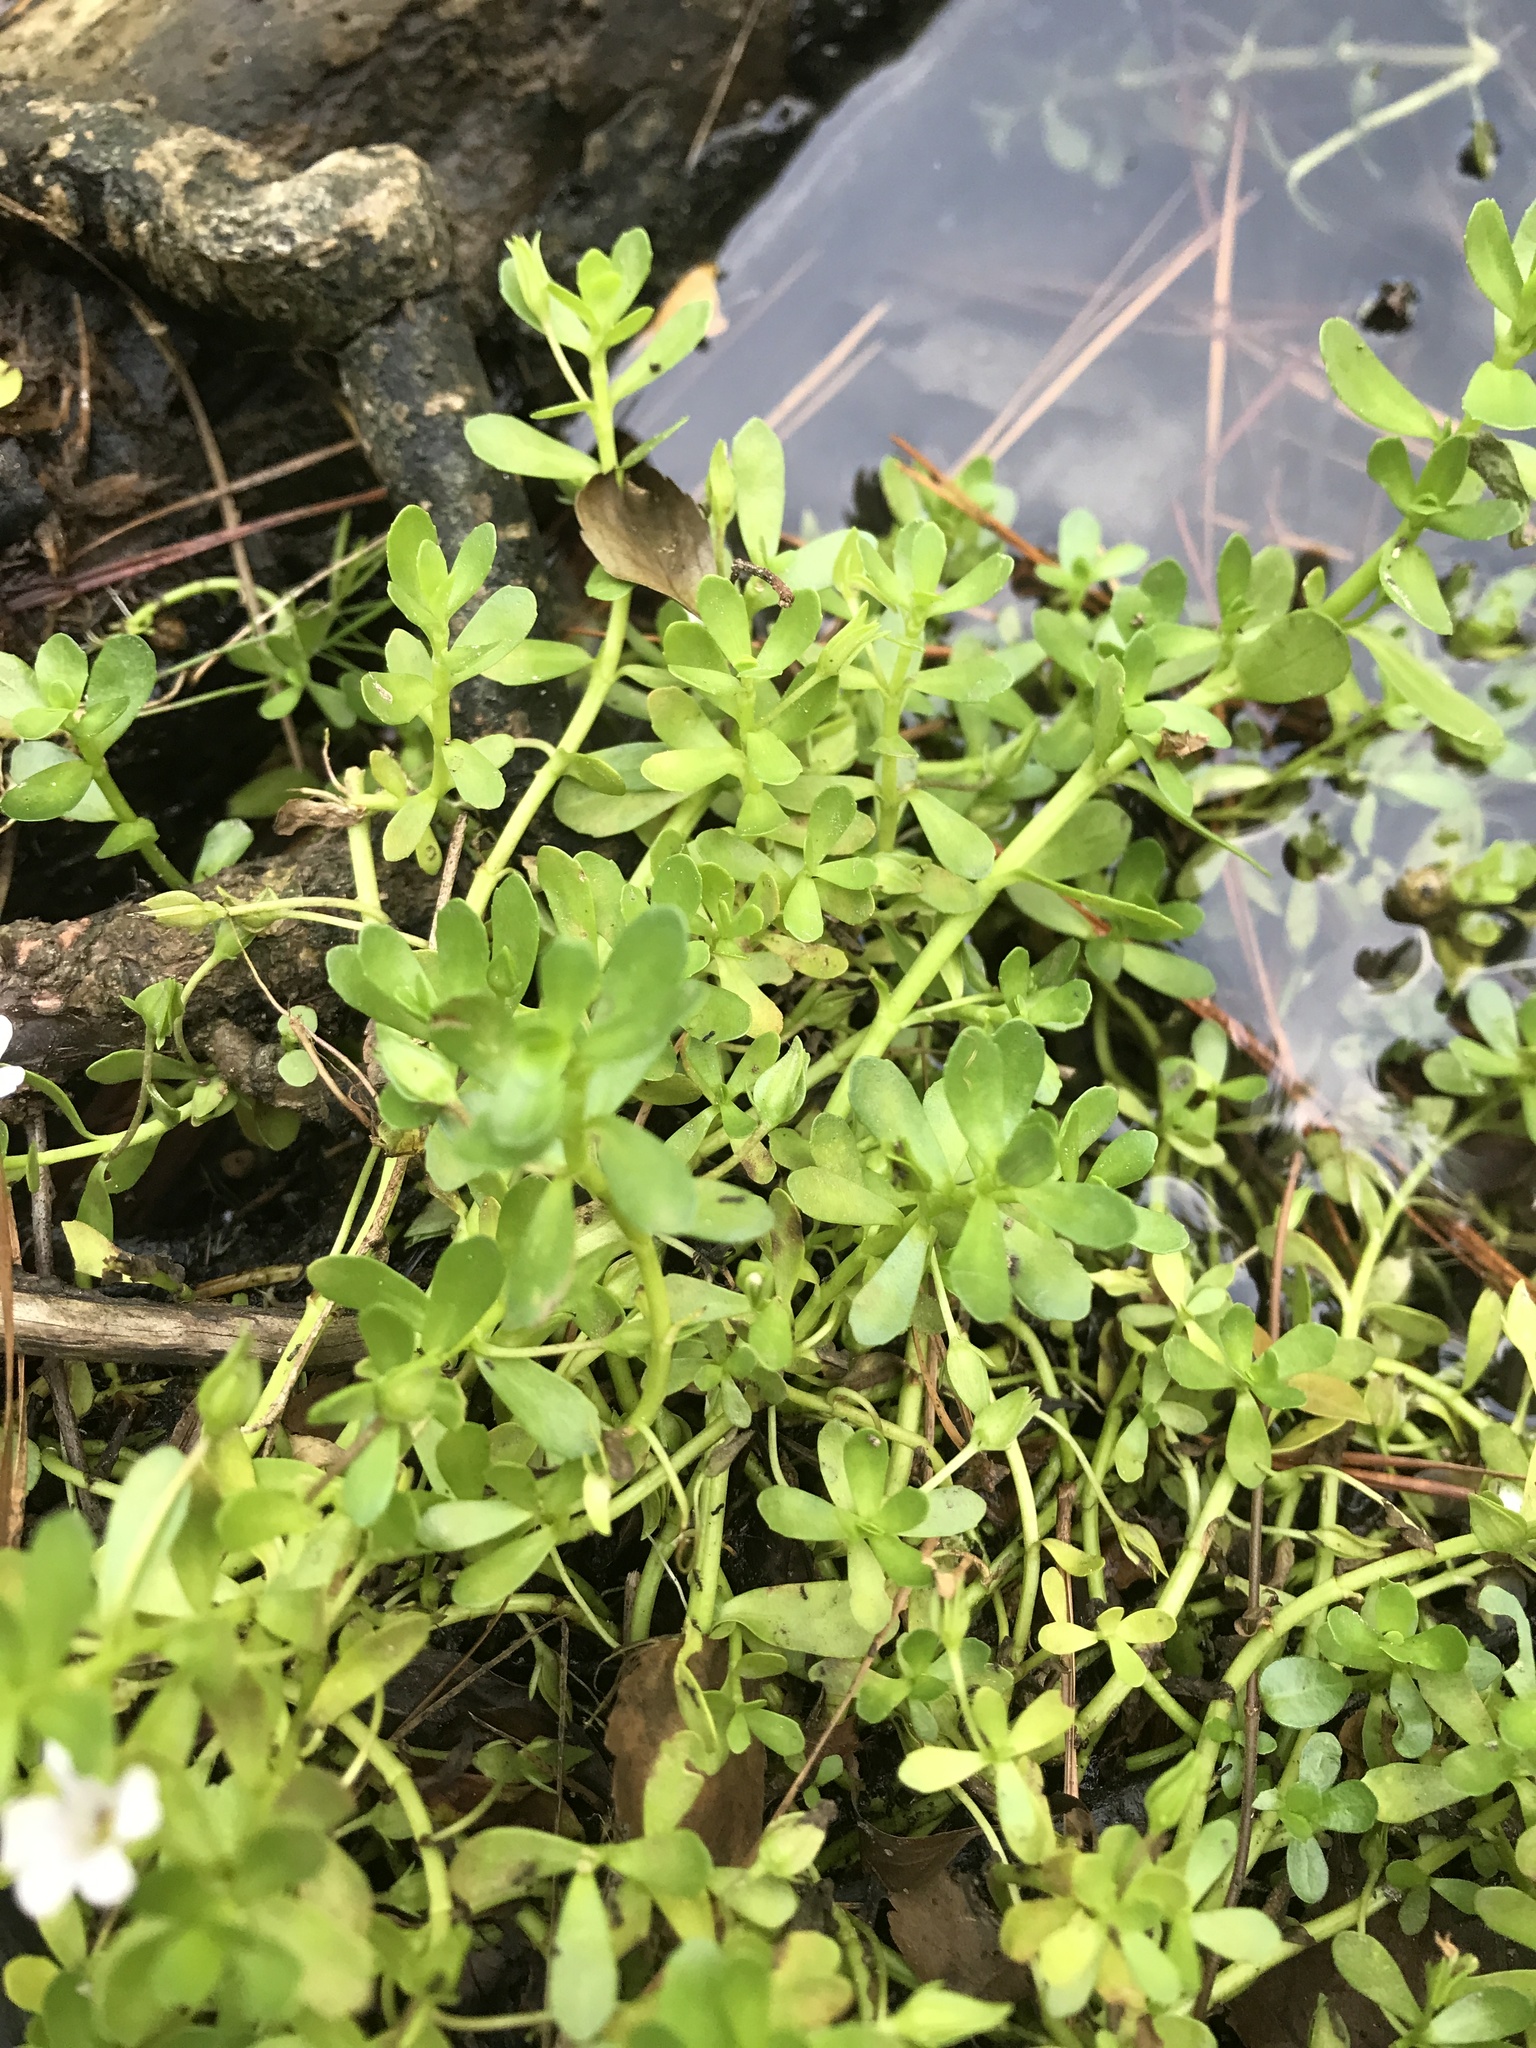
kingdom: Plantae
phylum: Tracheophyta
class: Magnoliopsida
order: Lamiales
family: Plantaginaceae
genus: Bacopa
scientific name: Bacopa monnieri
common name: Indian-pennywort
